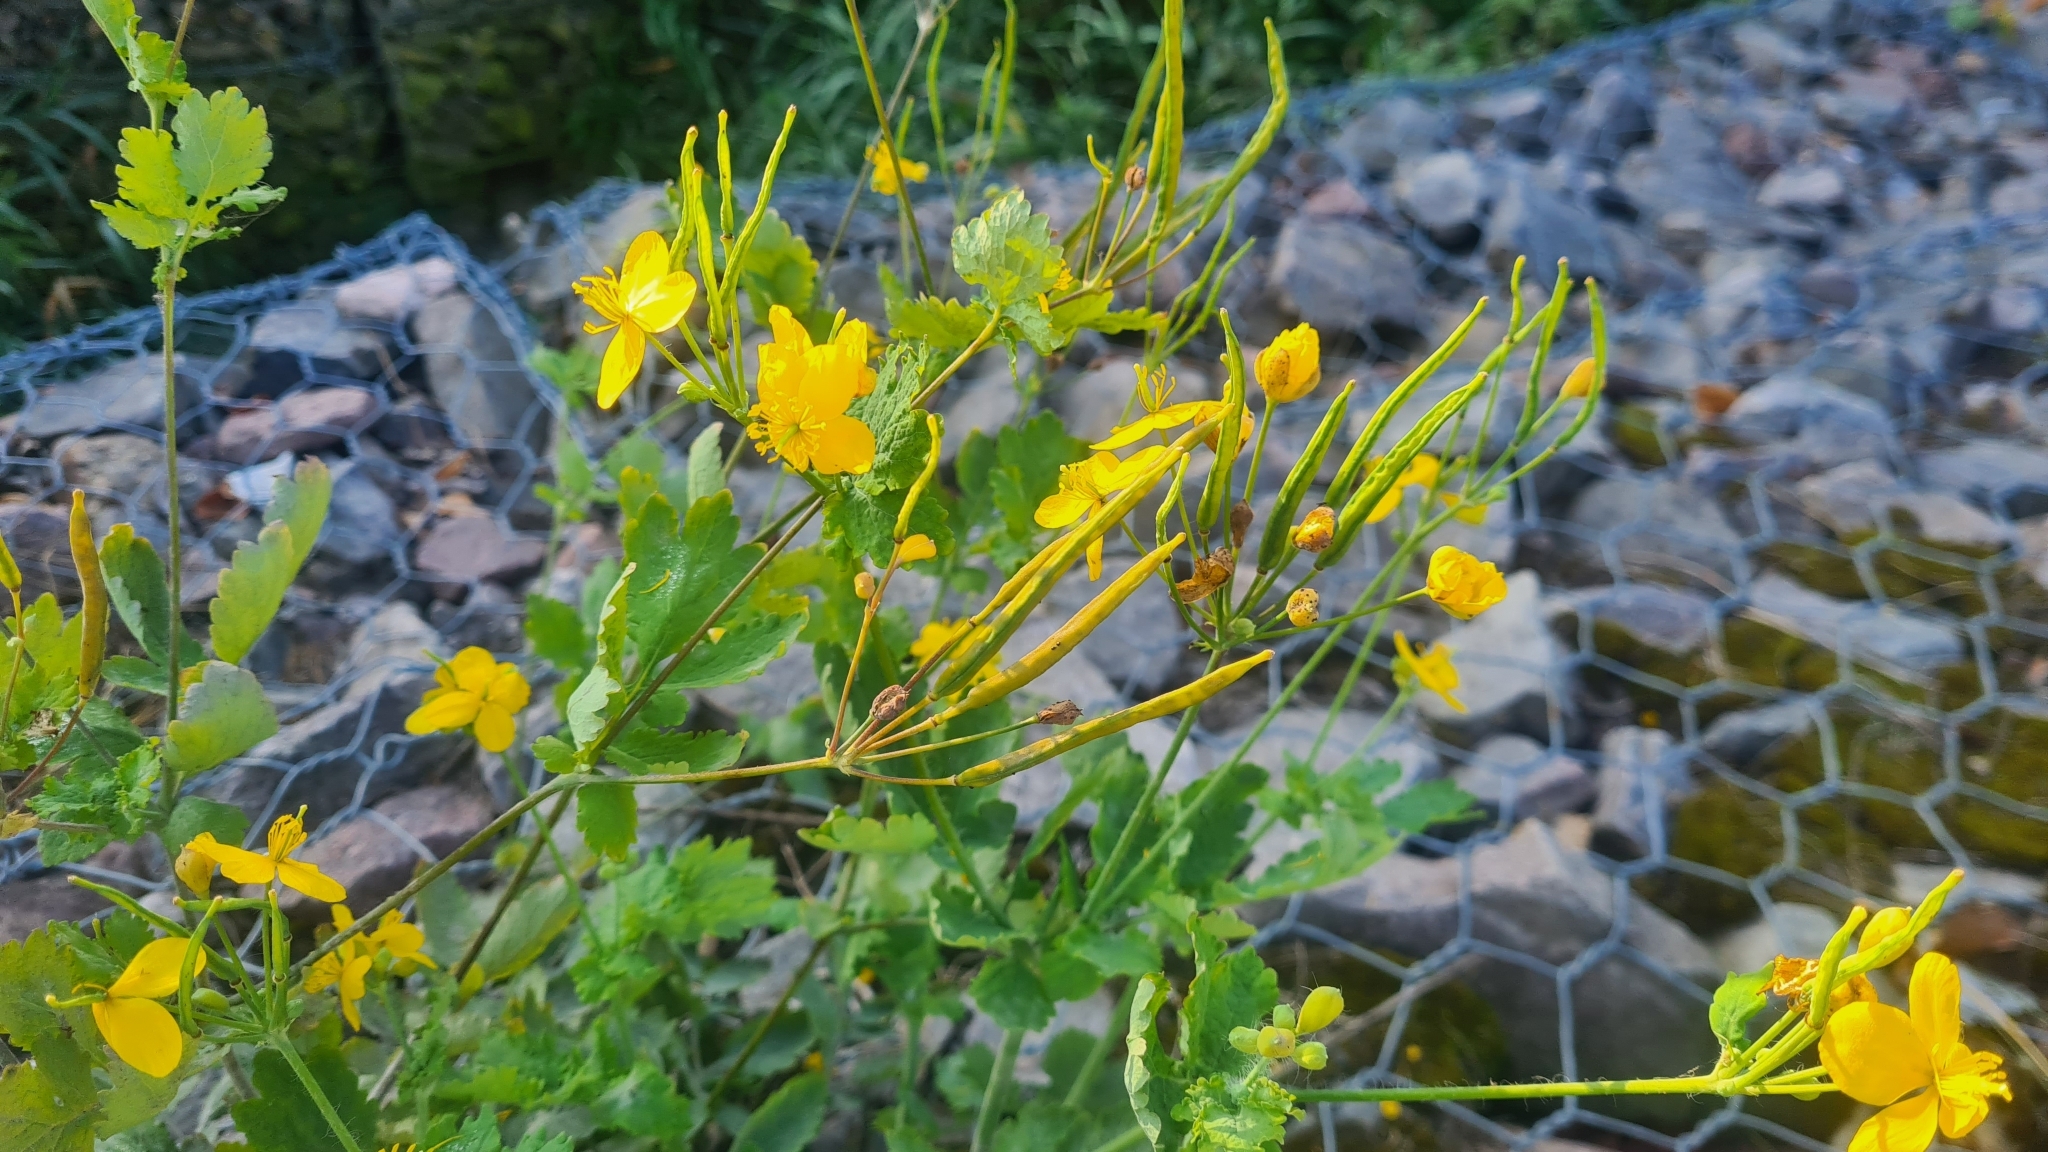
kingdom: Plantae
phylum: Tracheophyta
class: Magnoliopsida
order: Ranunculales
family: Papaveraceae
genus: Chelidonium
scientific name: Chelidonium majus
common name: Greater celandine
